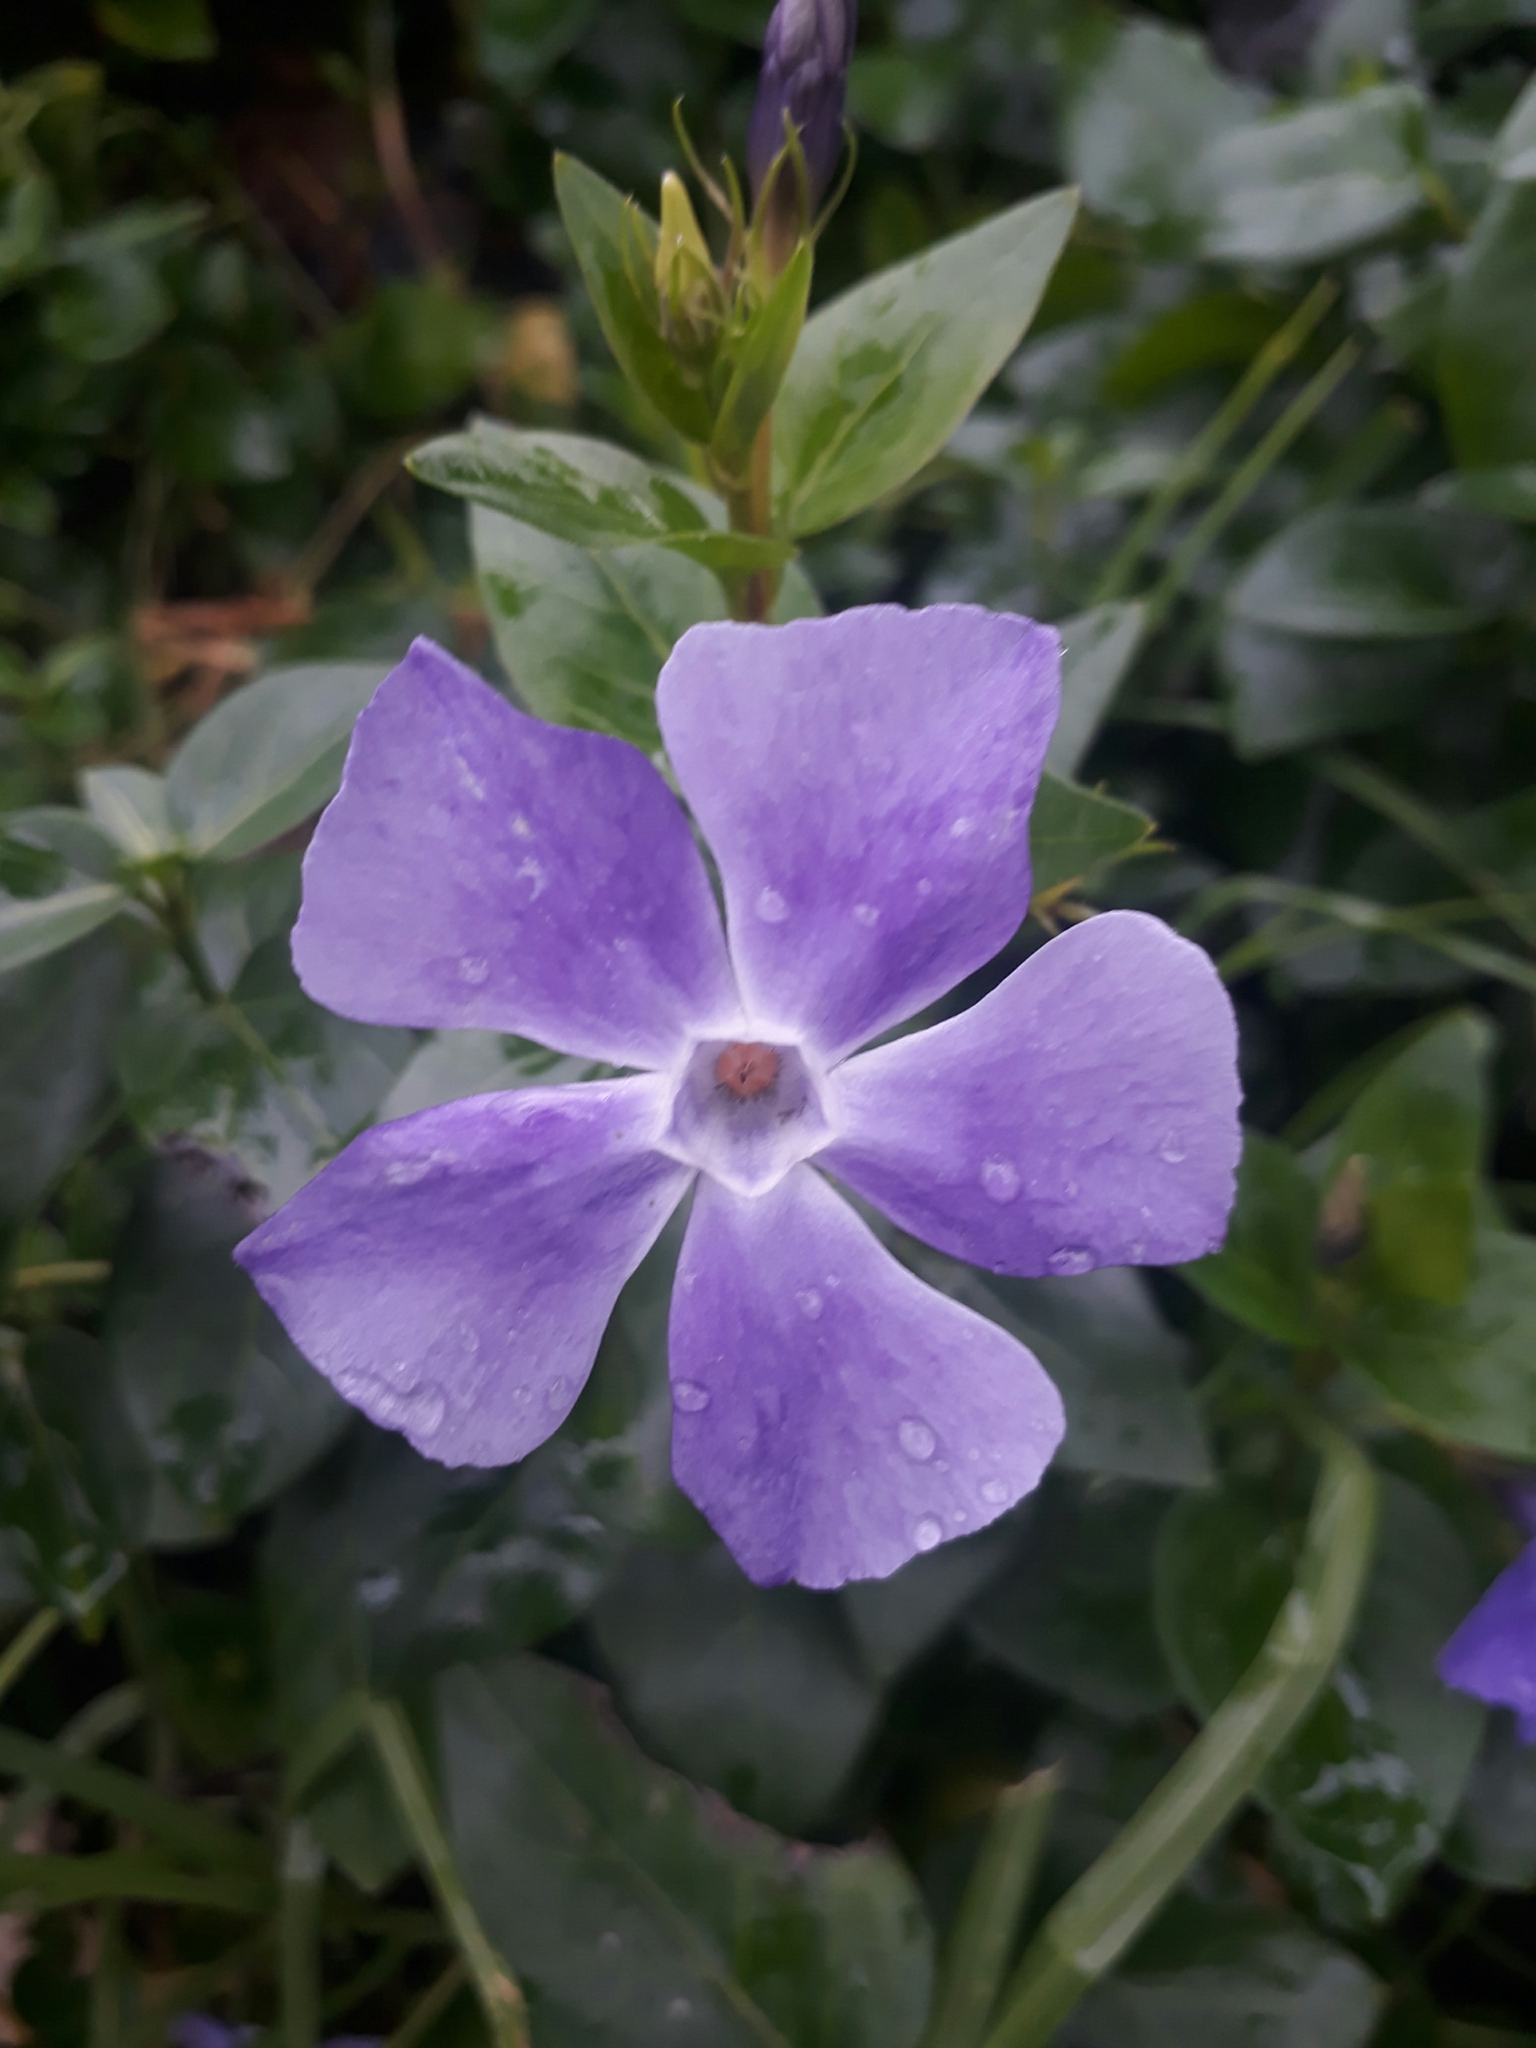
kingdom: Plantae
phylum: Tracheophyta
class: Magnoliopsida
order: Gentianales
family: Apocynaceae
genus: Vinca
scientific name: Vinca major
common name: Greater periwinkle
